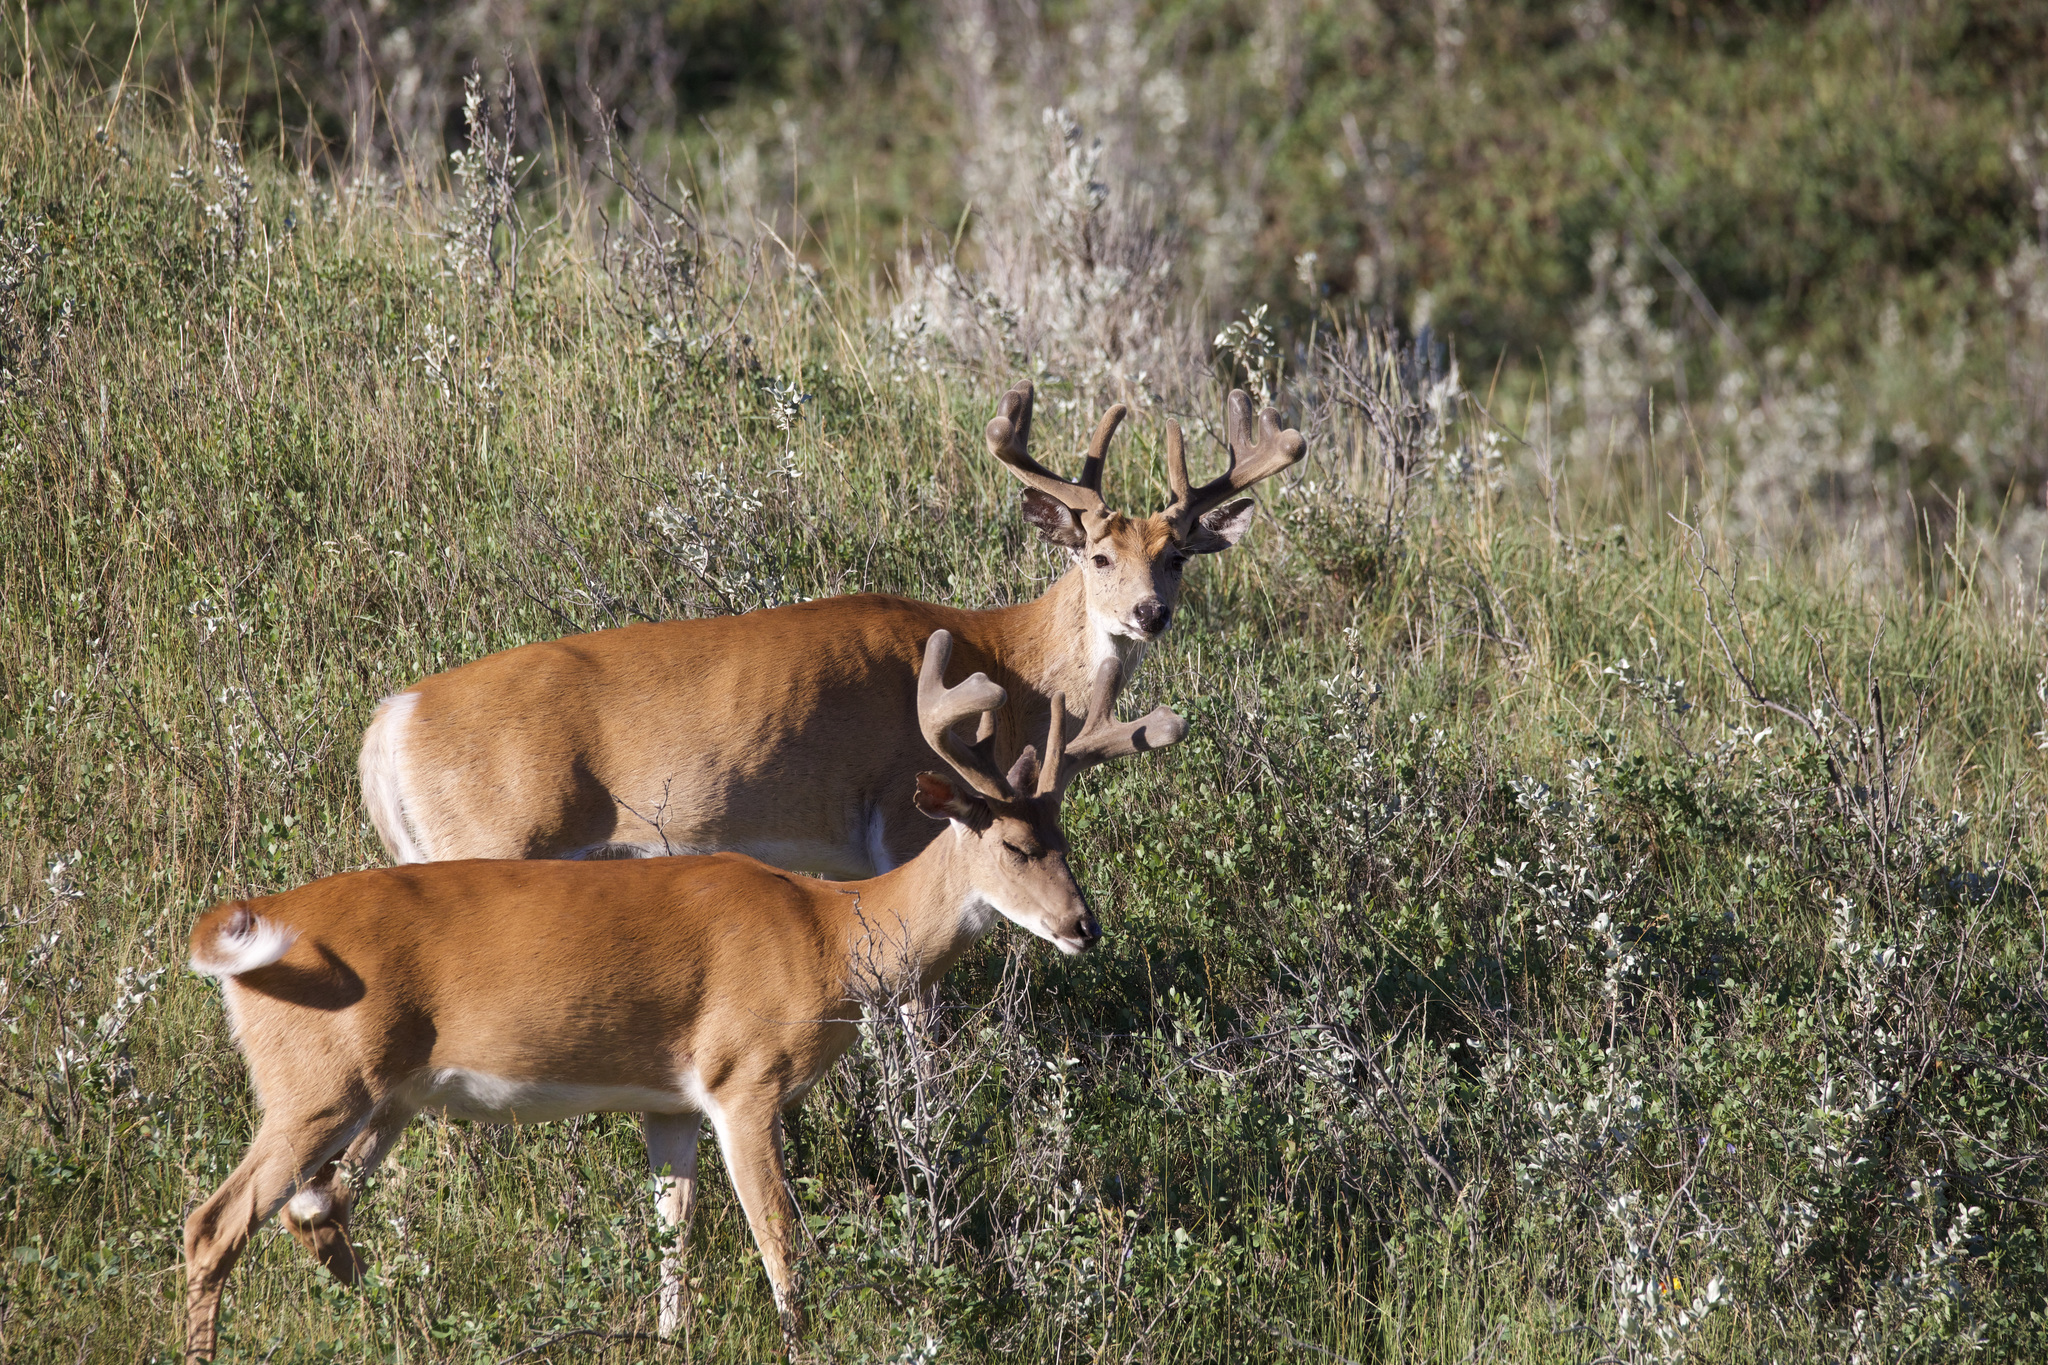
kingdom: Animalia
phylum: Chordata
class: Mammalia
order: Artiodactyla
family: Cervidae
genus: Odocoileus
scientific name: Odocoileus virginianus
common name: White-tailed deer
